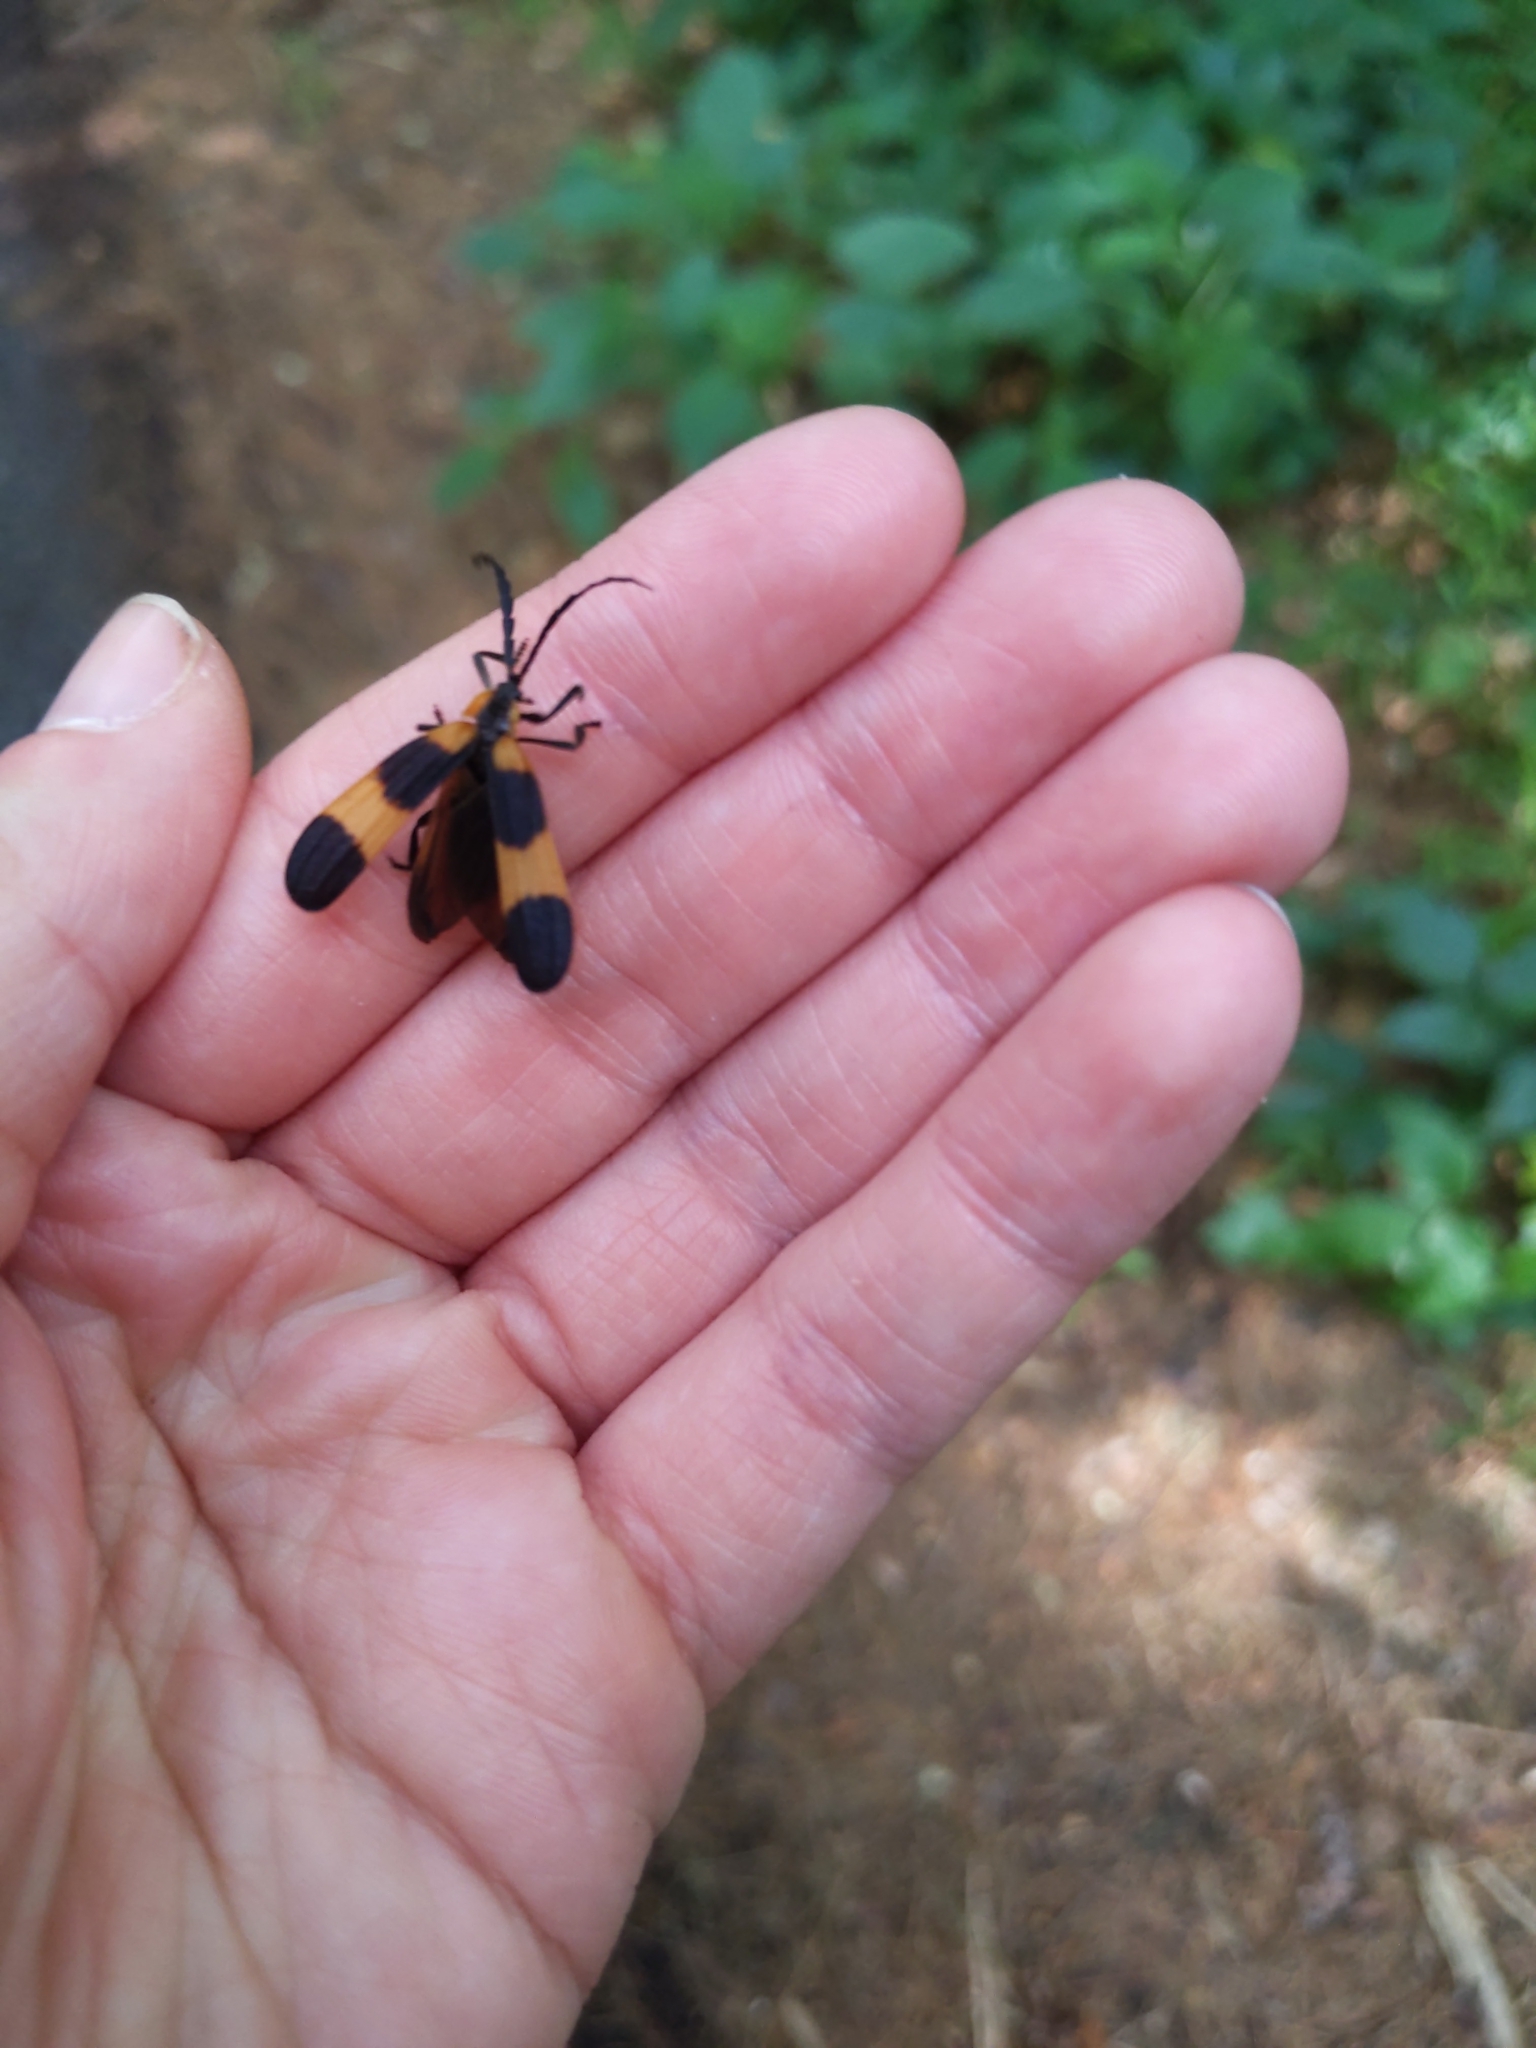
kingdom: Animalia
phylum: Arthropoda
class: Insecta
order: Coleoptera
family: Lycidae
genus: Calopteron
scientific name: Calopteron reticulatum
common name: Banded net-winged beetle
